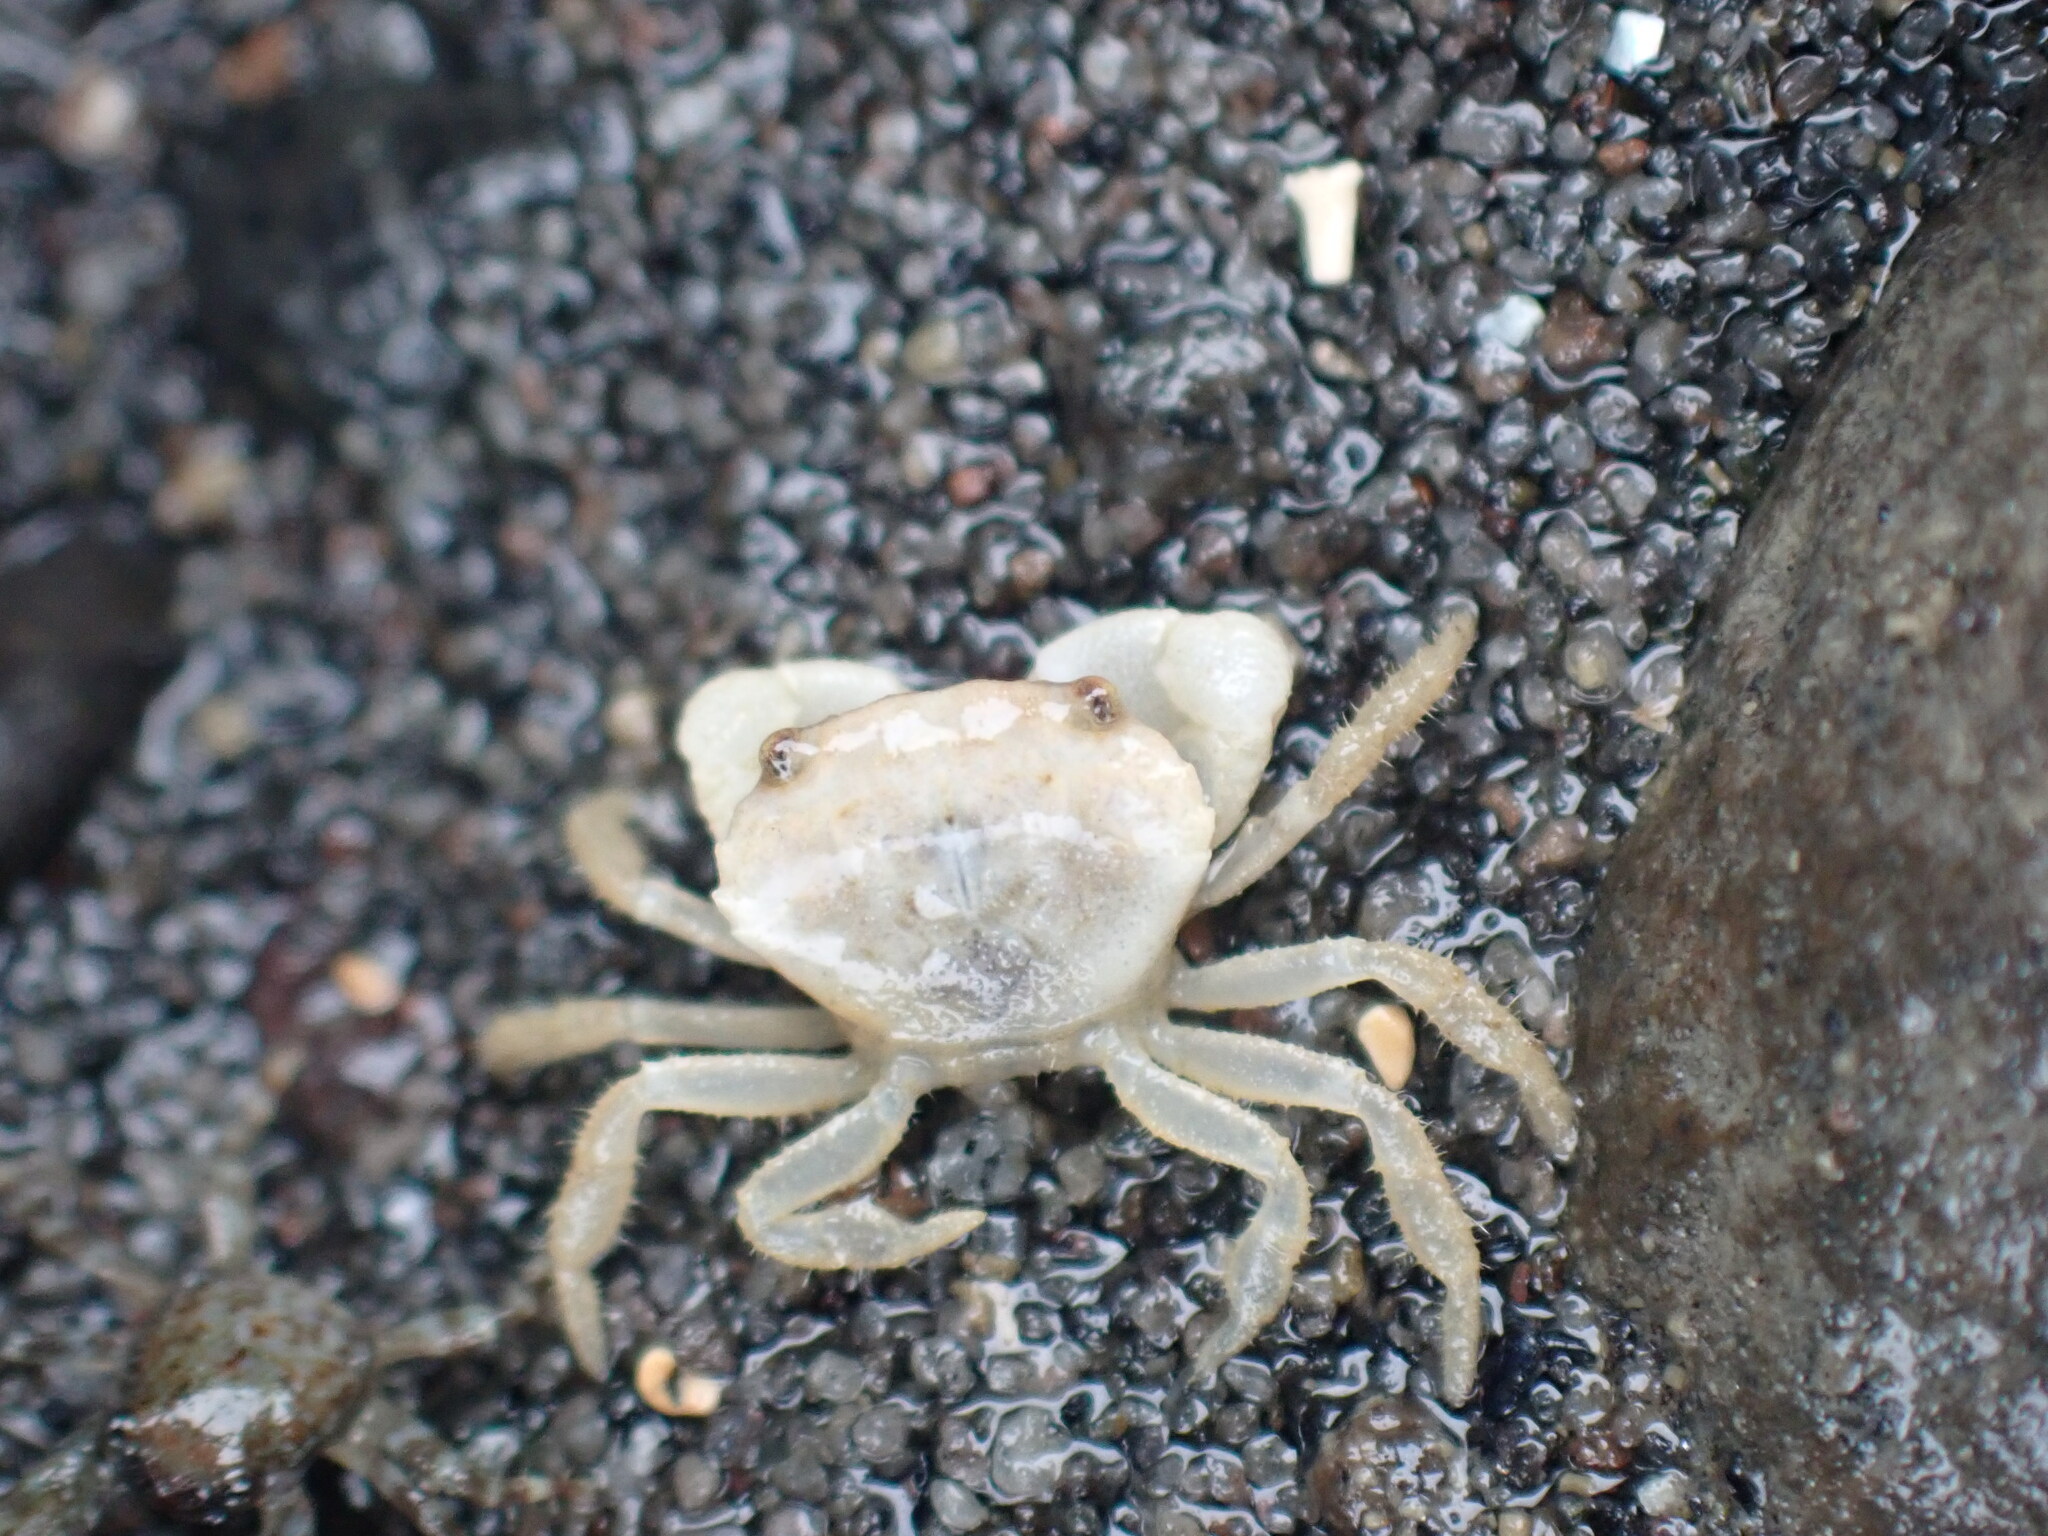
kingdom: Animalia
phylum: Arthropoda
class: Malacostraca
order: Decapoda
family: Oziidae
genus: Ozius
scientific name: Ozius deplanatus
